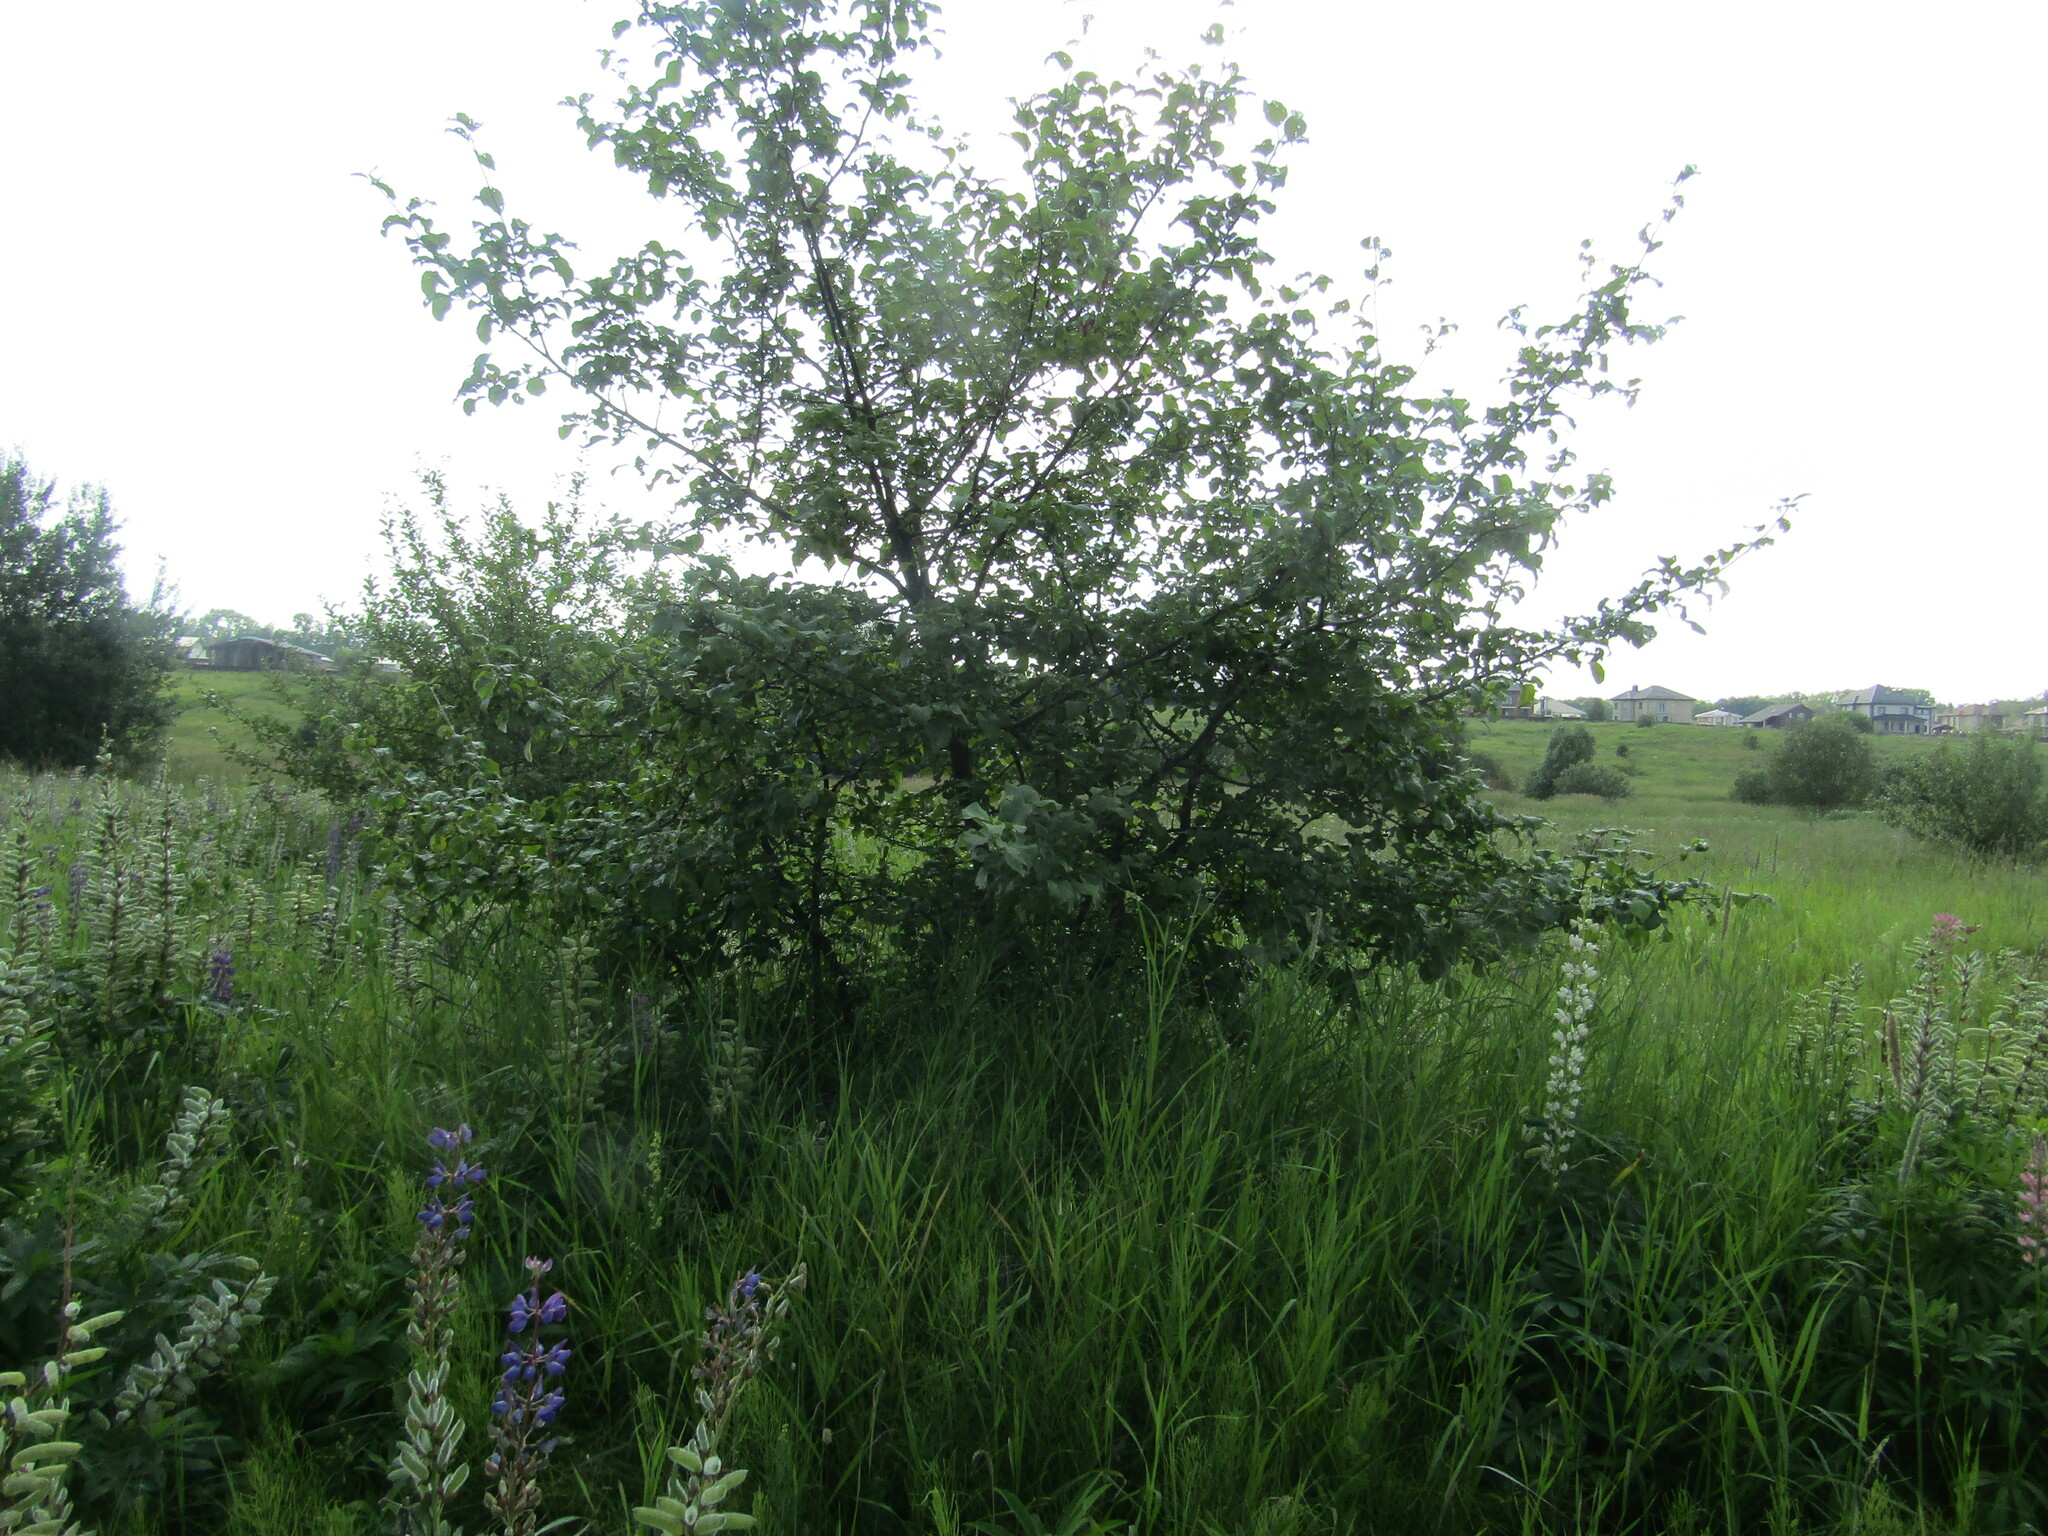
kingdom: Plantae
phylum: Tracheophyta
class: Magnoliopsida
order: Rosales
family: Rosaceae
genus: Malus
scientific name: Malus domestica
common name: Apple
